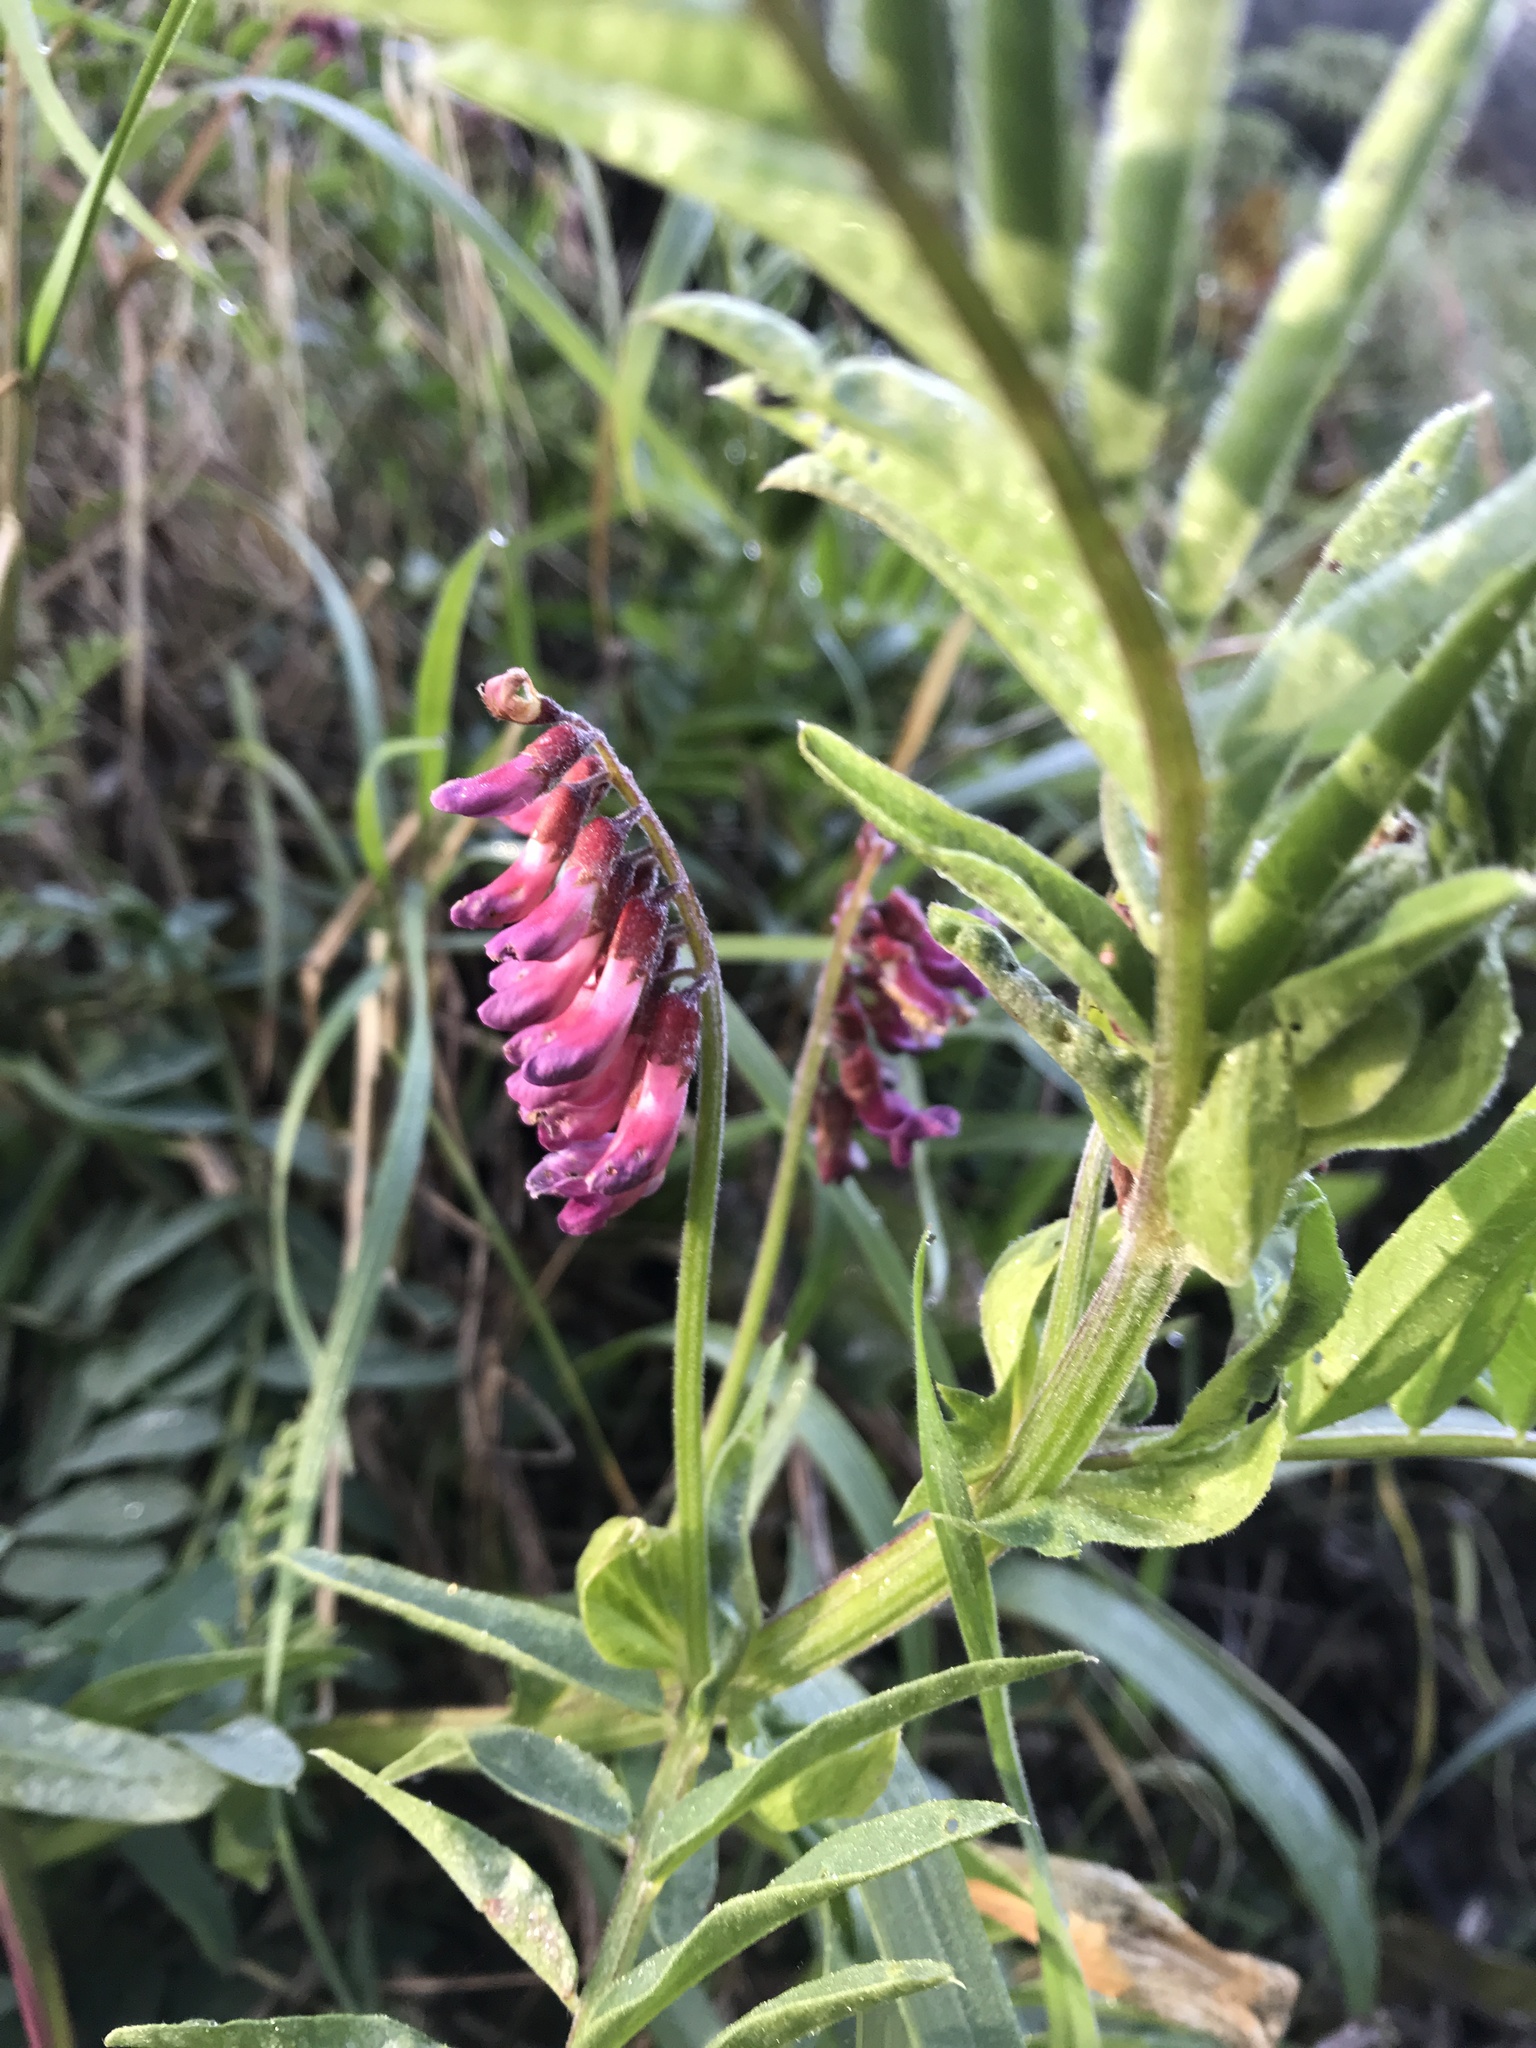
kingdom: Plantae
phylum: Tracheophyta
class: Magnoliopsida
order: Fabales
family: Fabaceae
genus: Vicia
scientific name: Vicia
